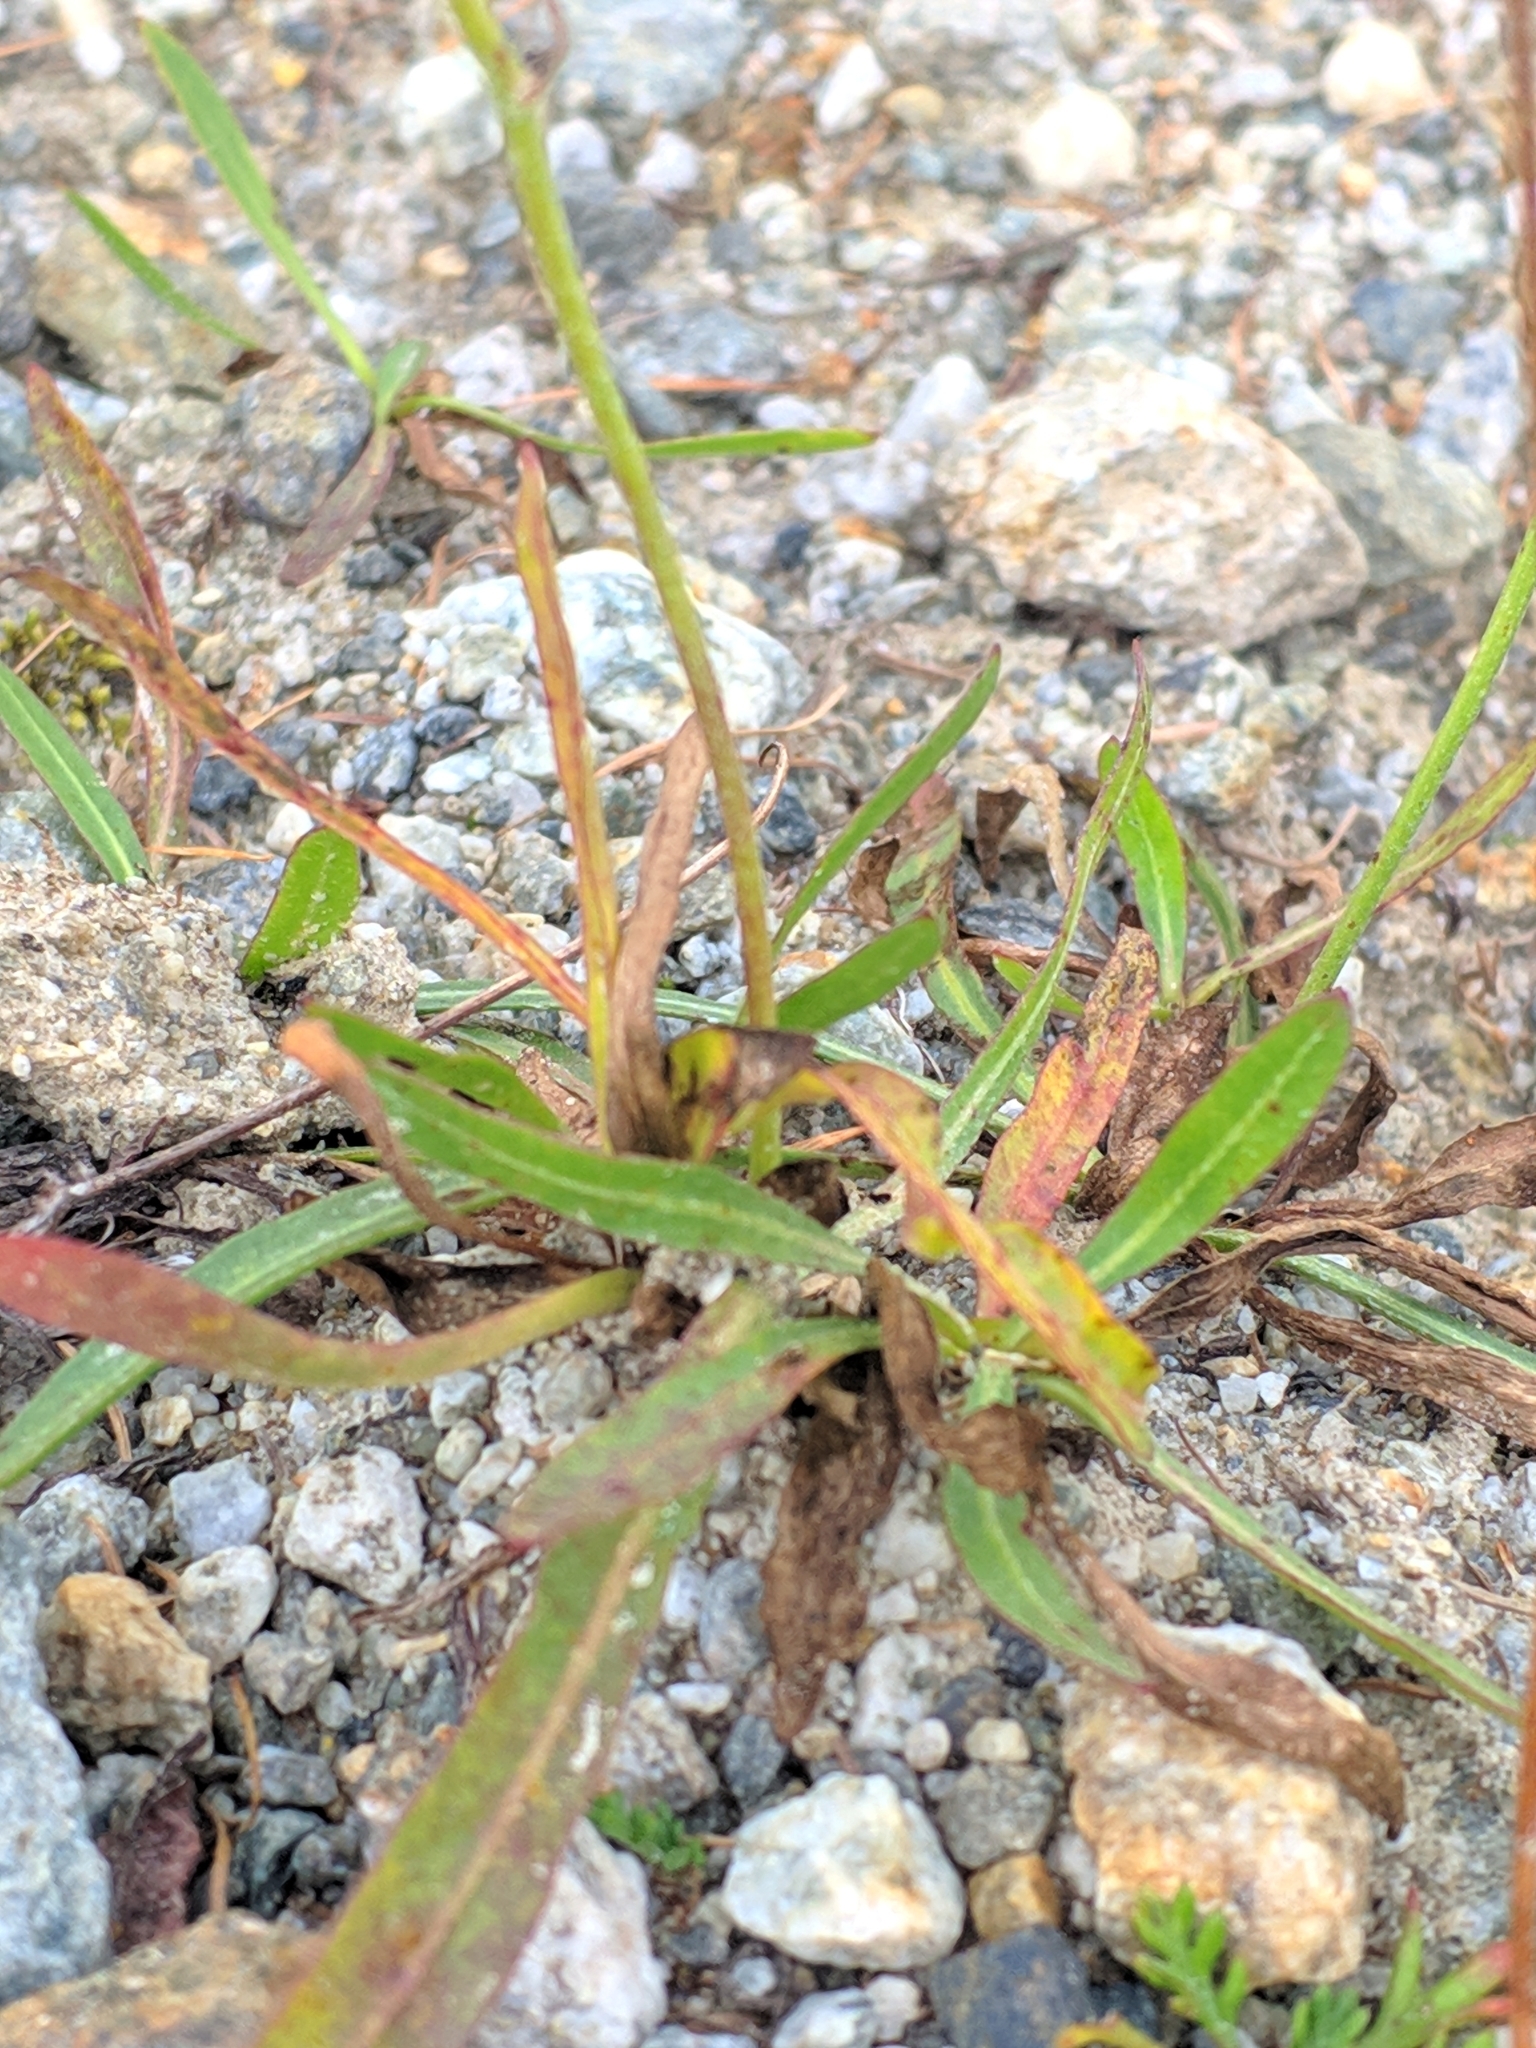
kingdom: Plantae
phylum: Tracheophyta
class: Magnoliopsida
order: Asterales
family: Asteraceae
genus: Tolpis
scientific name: Tolpis staticifolia
